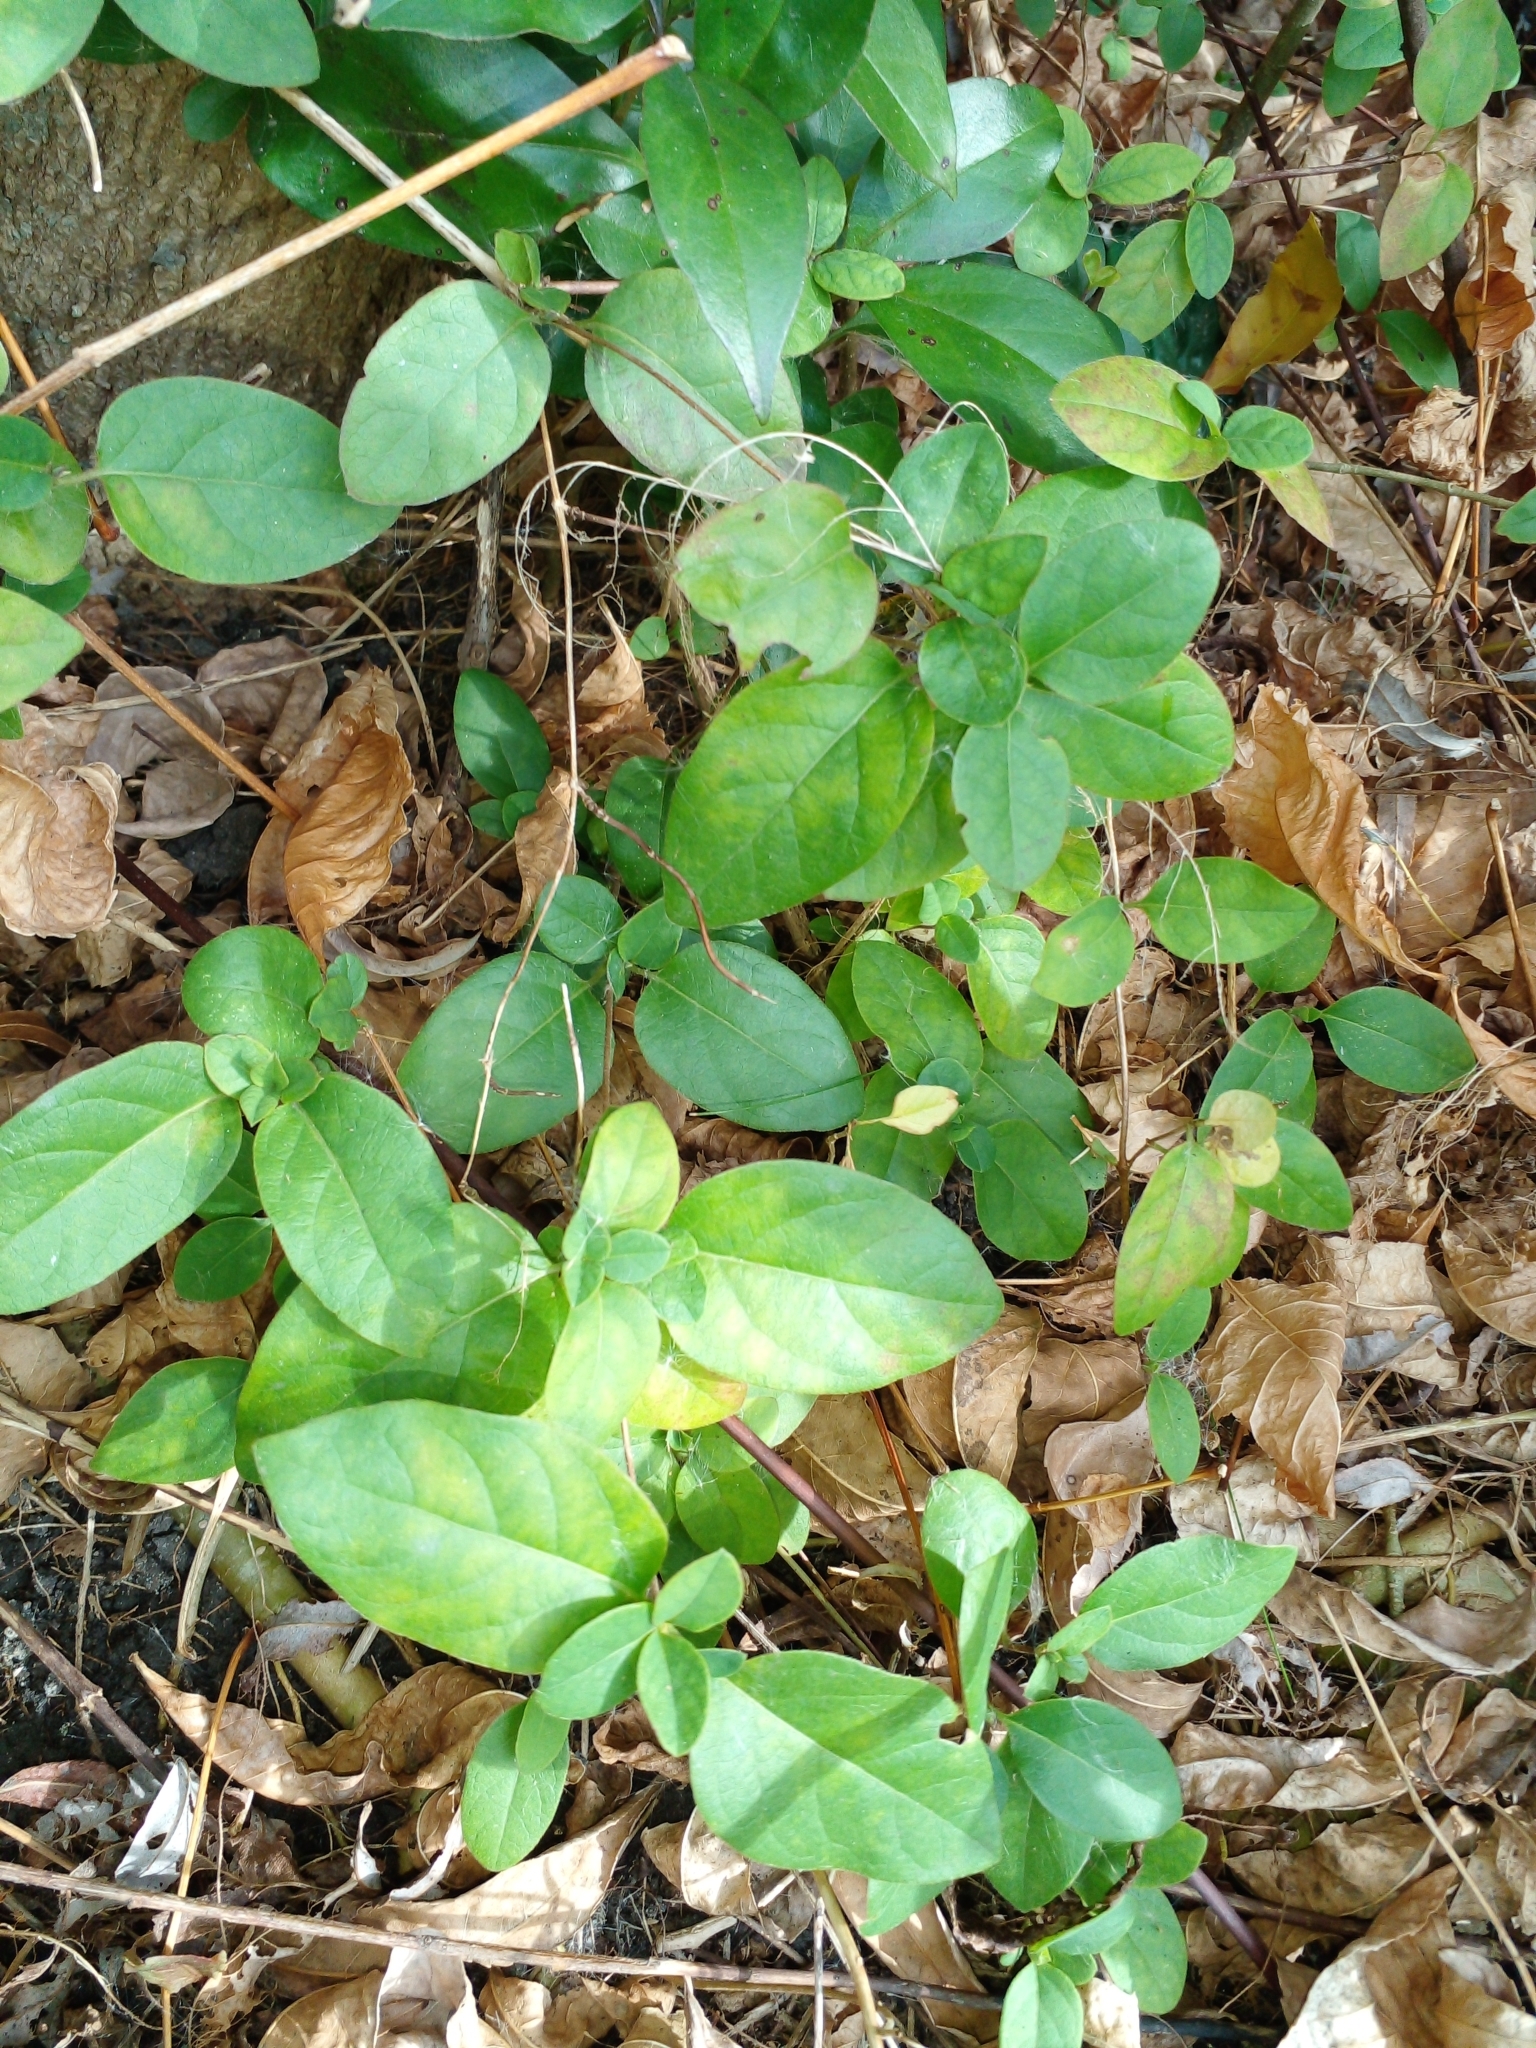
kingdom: Plantae
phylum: Tracheophyta
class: Magnoliopsida
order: Dipsacales
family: Caprifoliaceae
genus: Lonicera
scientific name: Lonicera japonica
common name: Japanese honeysuckle
